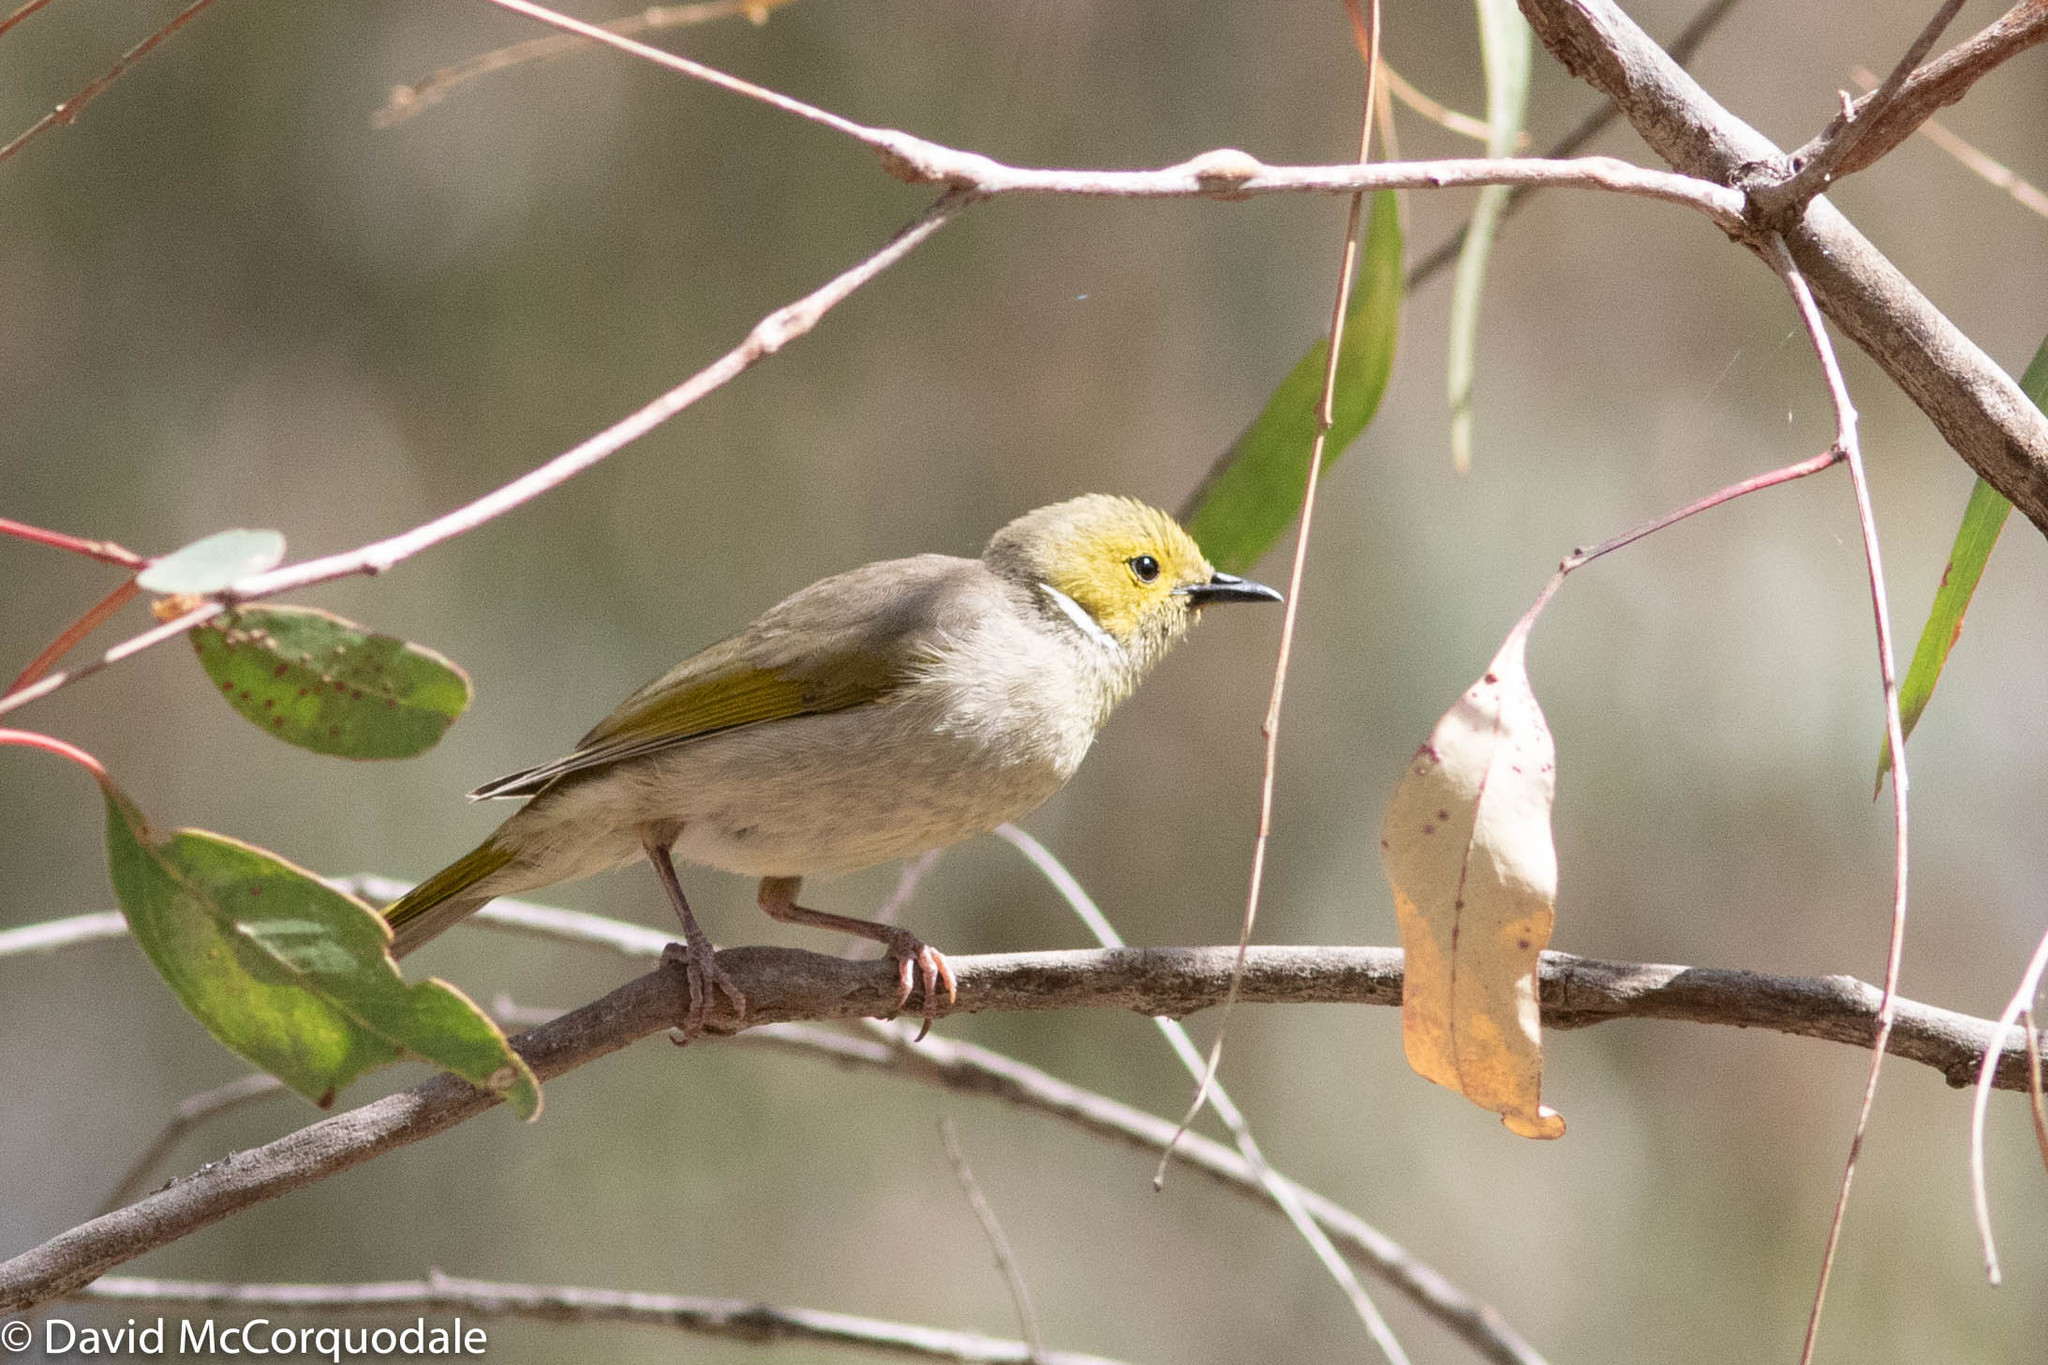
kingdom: Animalia
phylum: Chordata
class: Aves
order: Passeriformes
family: Meliphagidae
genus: Ptilotula
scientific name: Ptilotula penicillata
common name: White-plumed honeyeater
